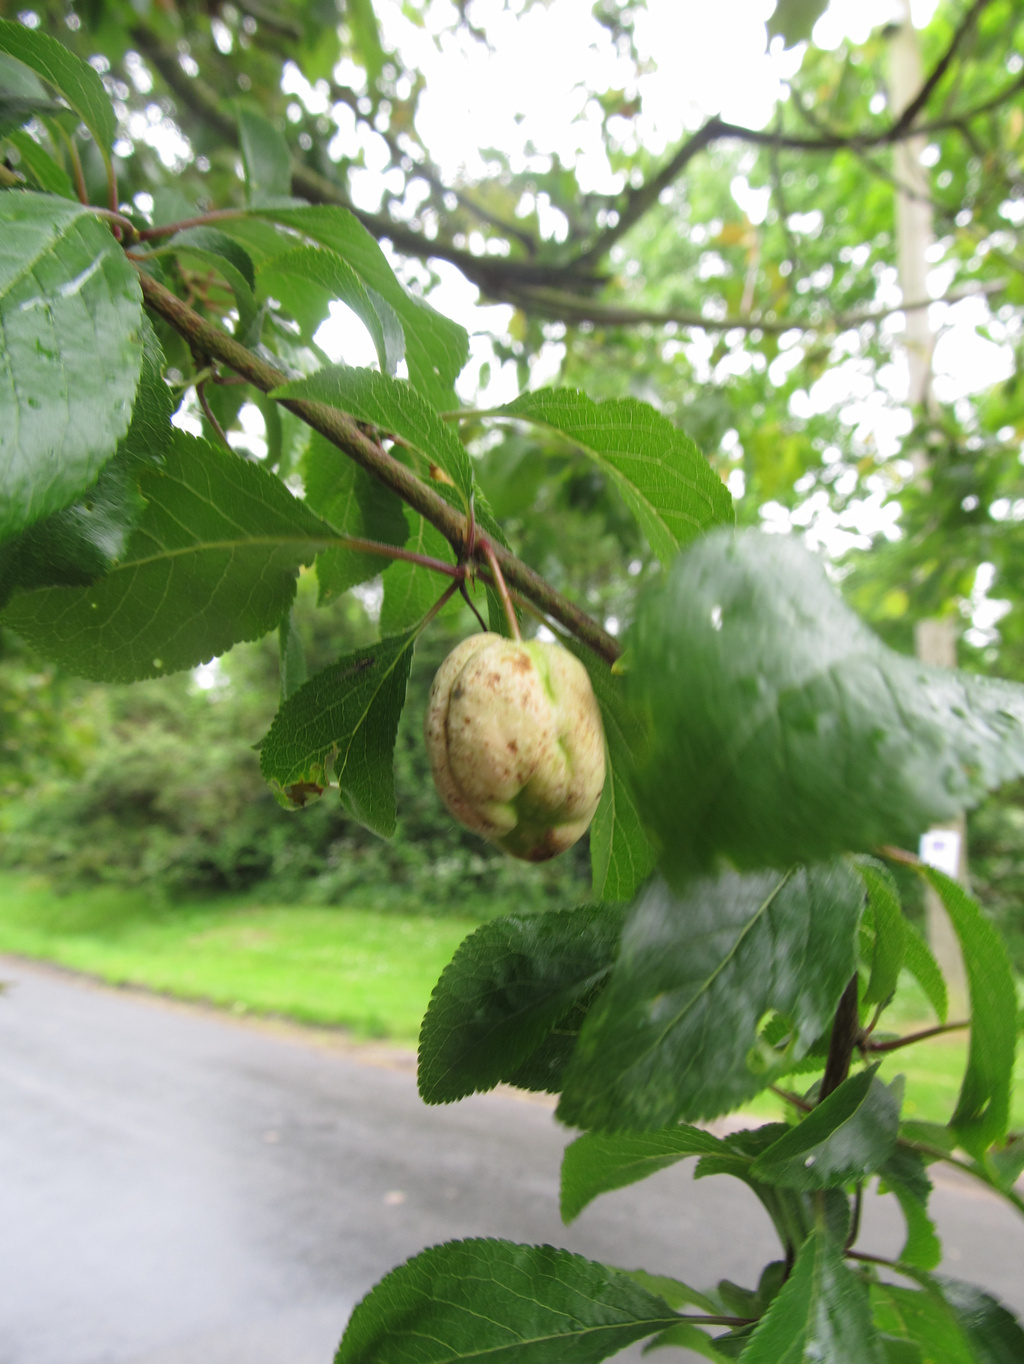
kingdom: Fungi
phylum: Ascomycota
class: Taphrinomycetes
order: Taphrinales
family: Taphrinaceae
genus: Taphrina
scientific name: Taphrina pruni
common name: Pocket plum
